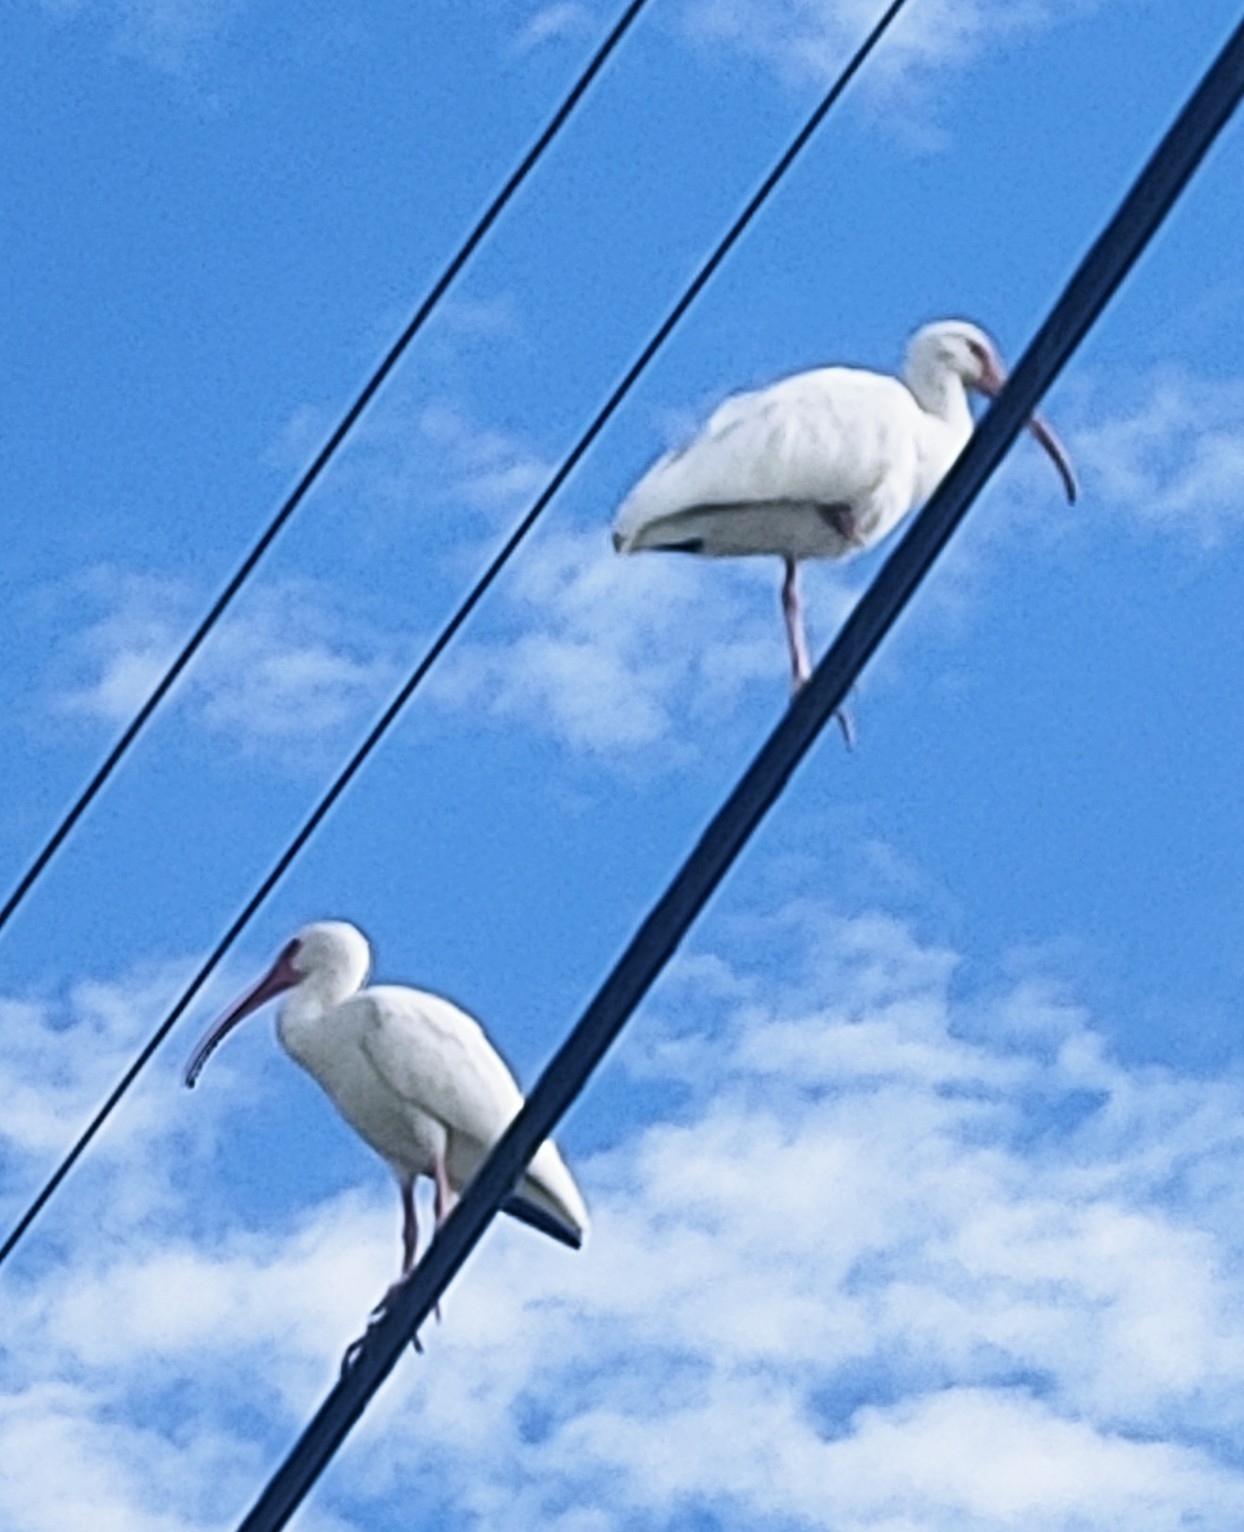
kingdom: Animalia
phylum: Chordata
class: Aves
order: Pelecaniformes
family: Threskiornithidae
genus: Eudocimus
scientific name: Eudocimus albus
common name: White ibis
